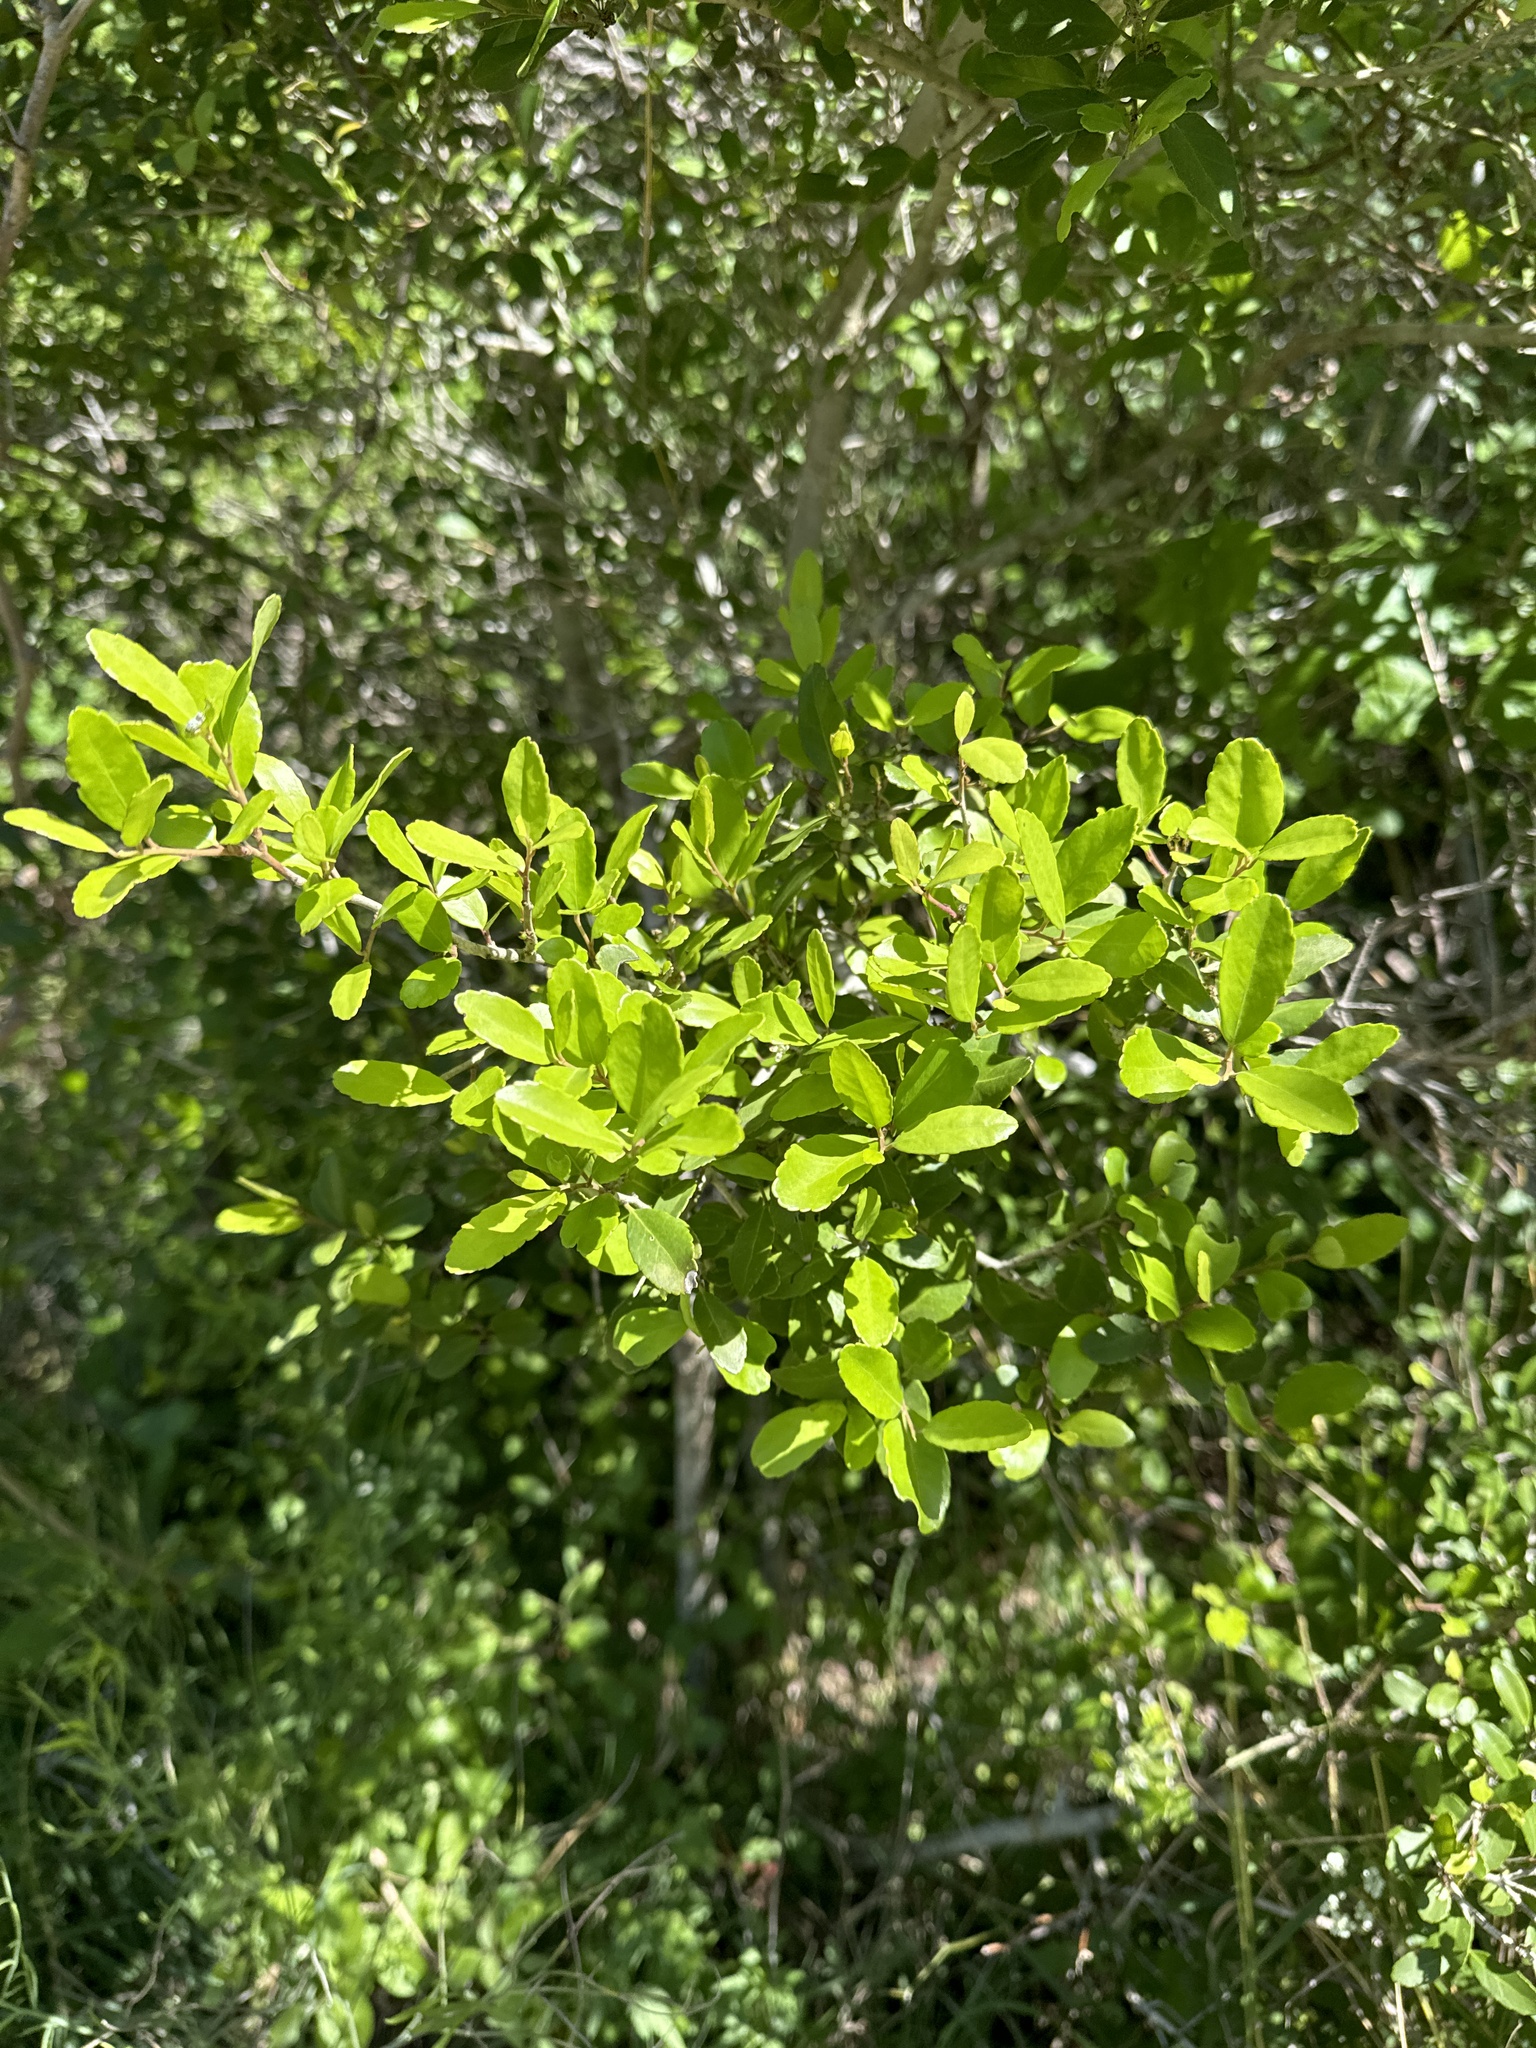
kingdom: Plantae
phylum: Tracheophyta
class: Magnoliopsida
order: Aquifoliales
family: Aquifoliaceae
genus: Ilex
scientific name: Ilex vomitoria
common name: Yaupon holly
